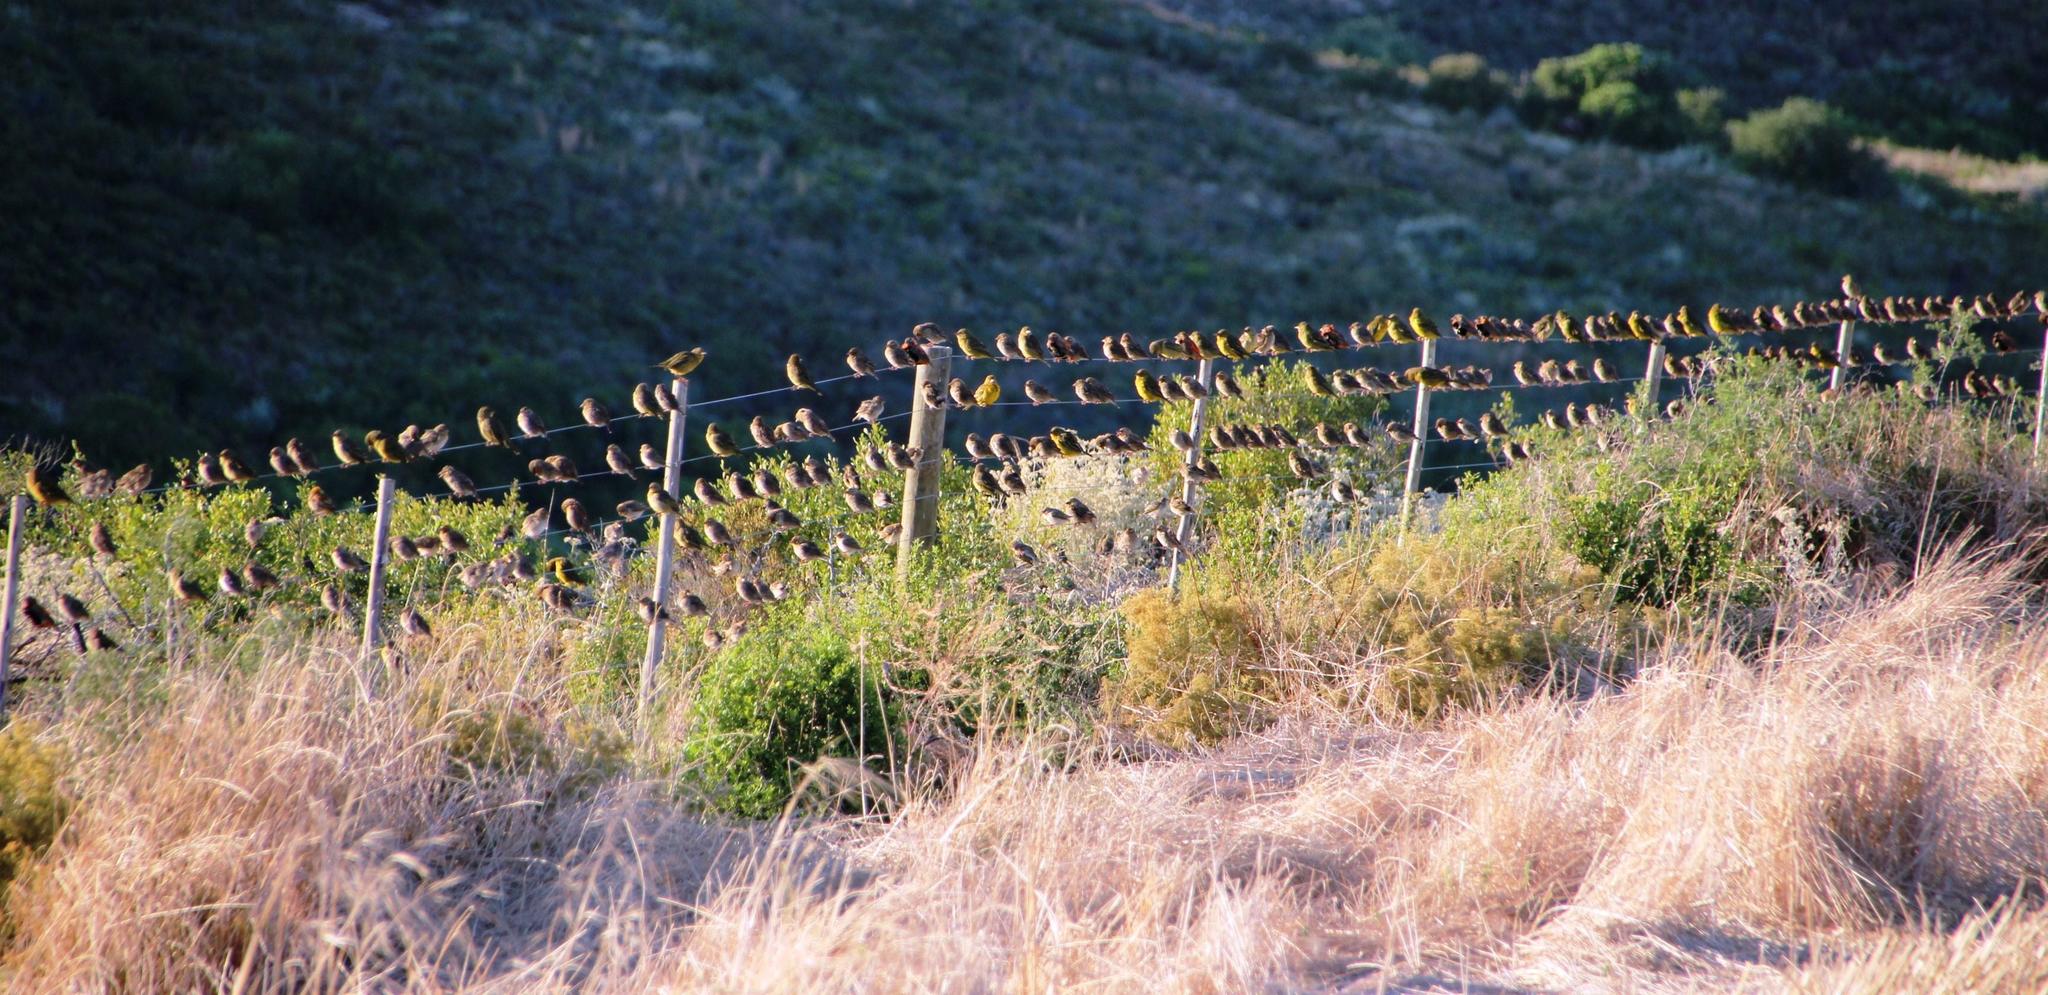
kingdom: Animalia
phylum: Chordata
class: Aves
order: Passeriformes
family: Ploceidae
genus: Ploceus
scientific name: Ploceus capensis
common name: Cape weaver
